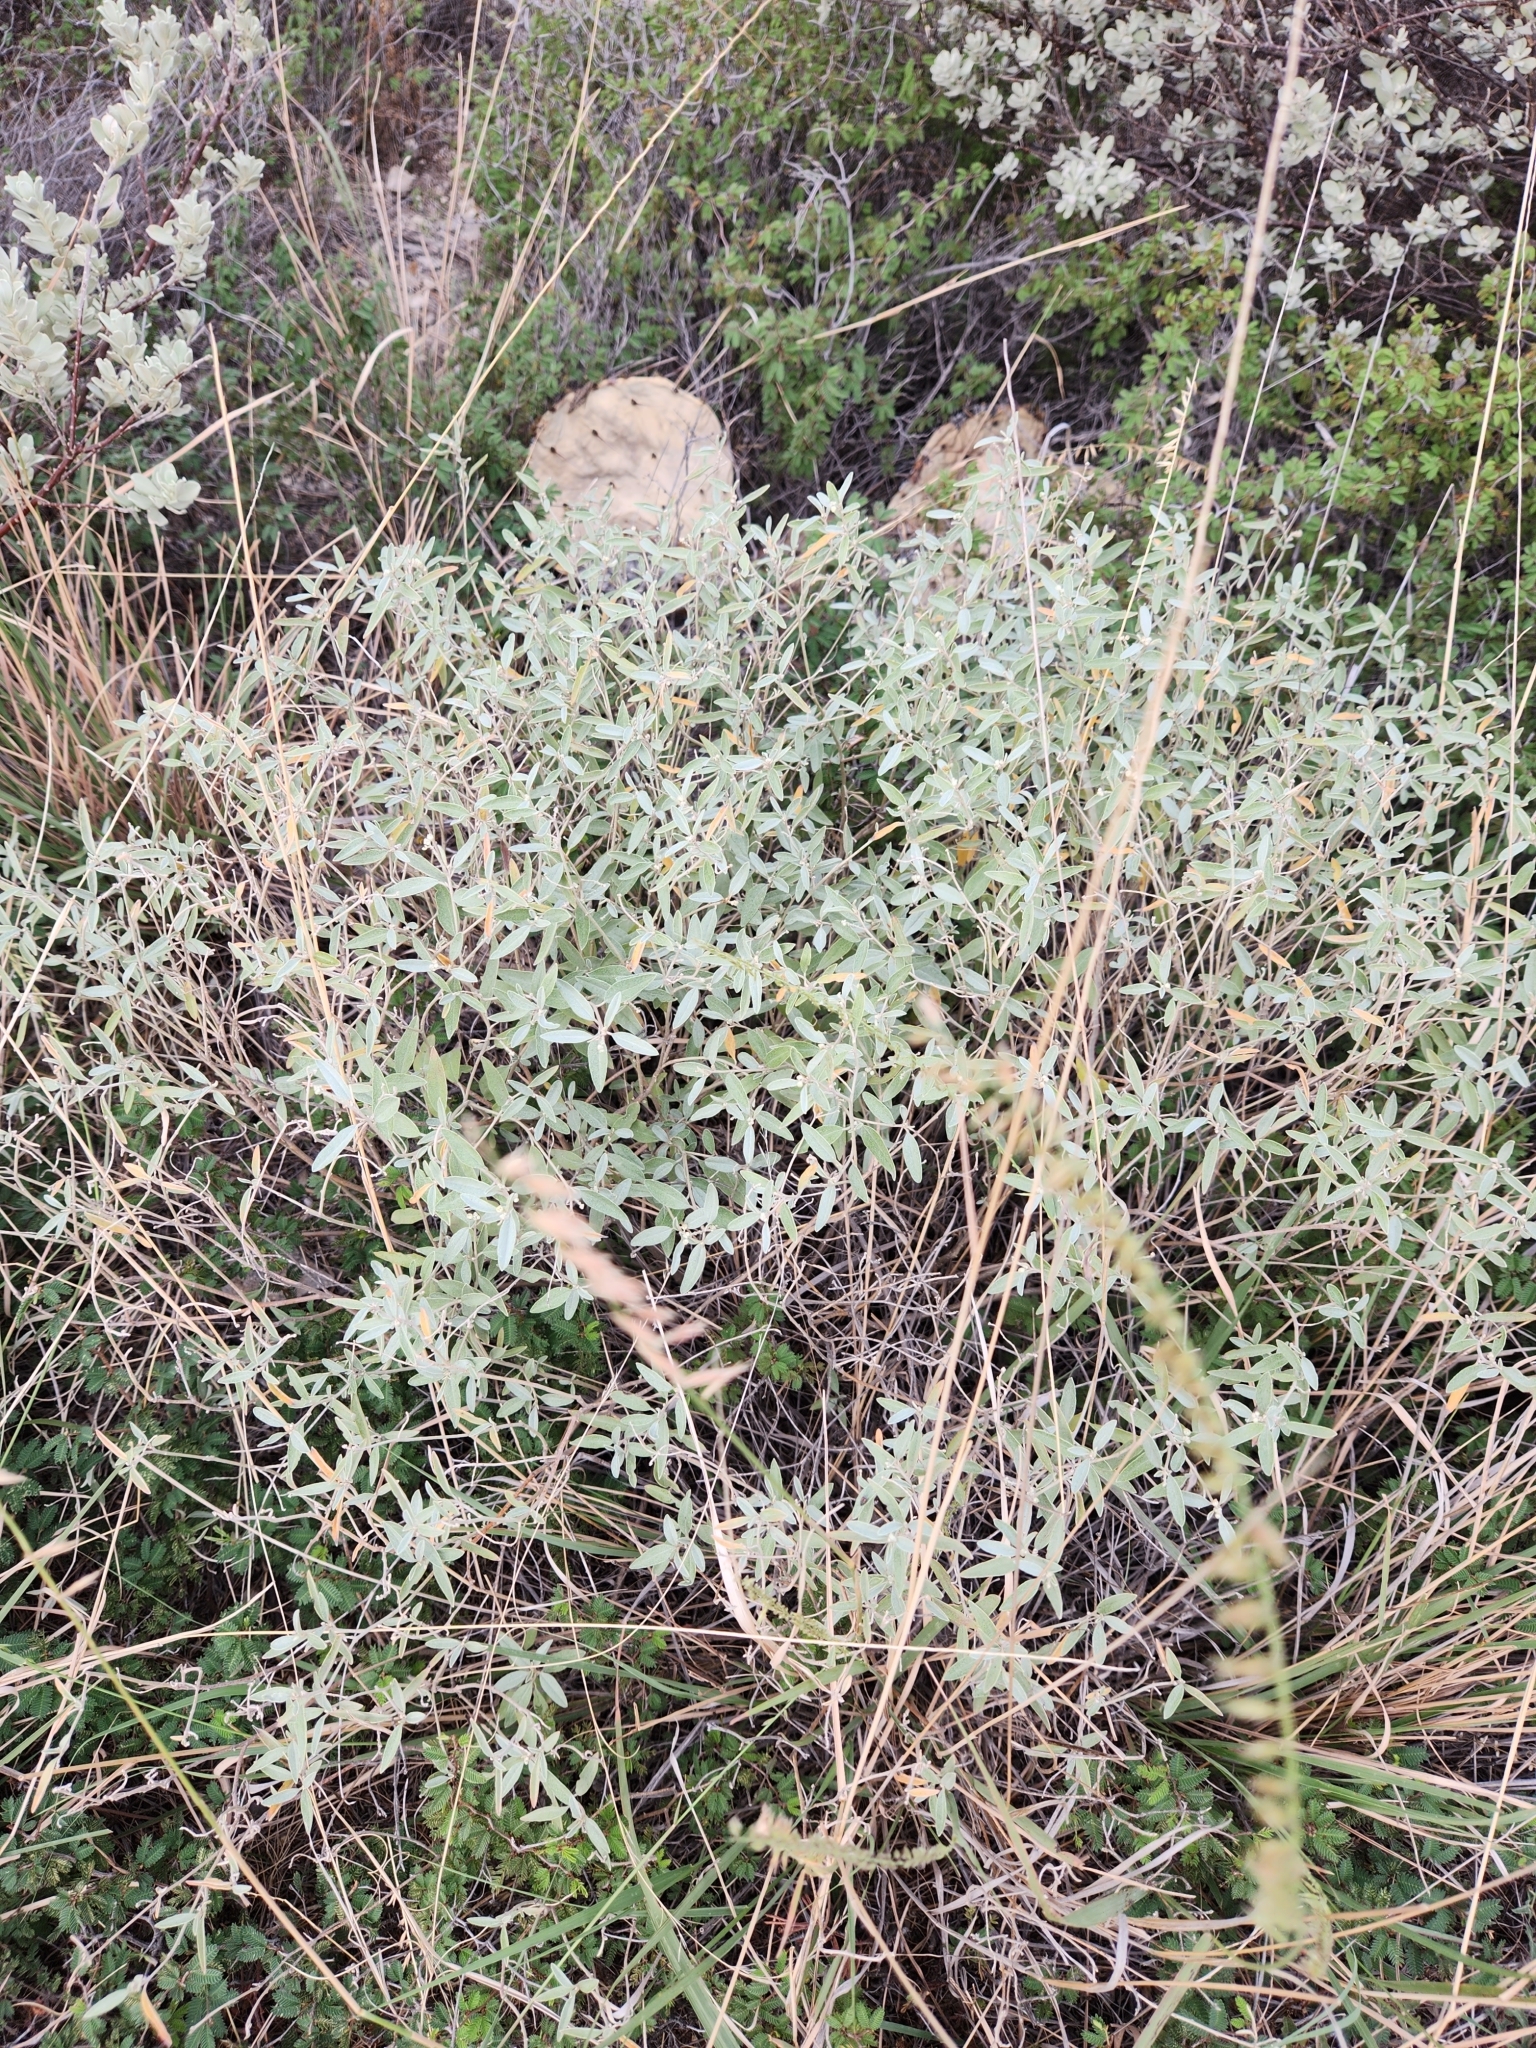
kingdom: Plantae
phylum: Tracheophyta
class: Magnoliopsida
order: Malpighiales
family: Euphorbiaceae
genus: Croton
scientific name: Croton dioicus
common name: Grassland croton
